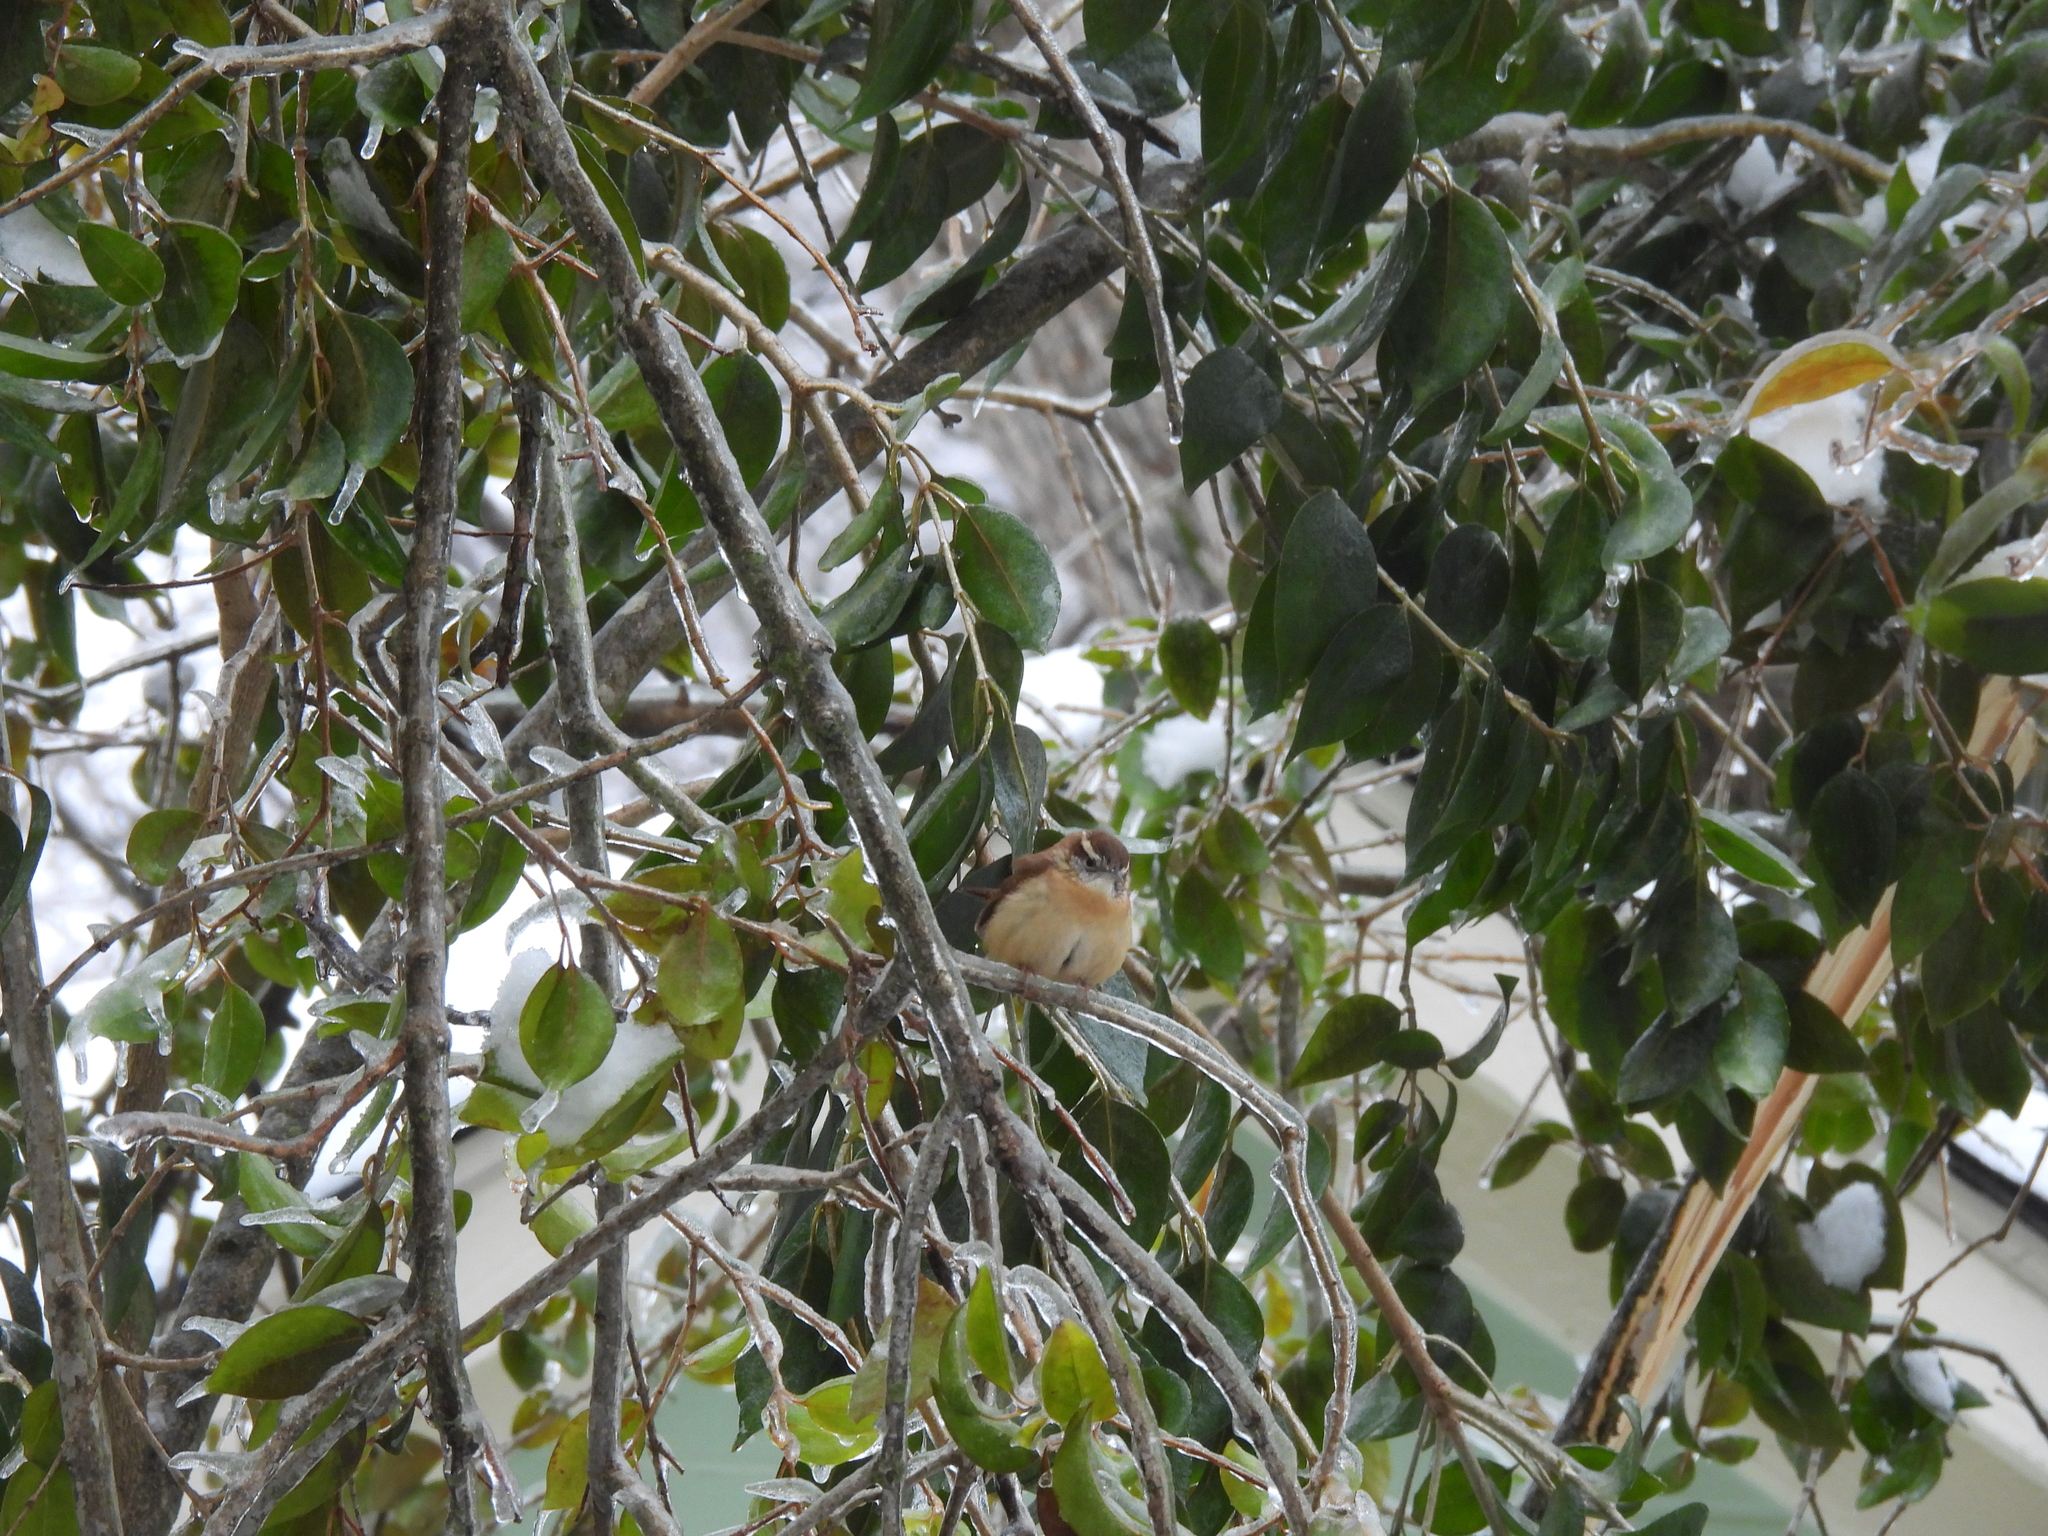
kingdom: Animalia
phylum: Chordata
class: Aves
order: Passeriformes
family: Troglodytidae
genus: Thryothorus
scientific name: Thryothorus ludovicianus
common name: Carolina wren
